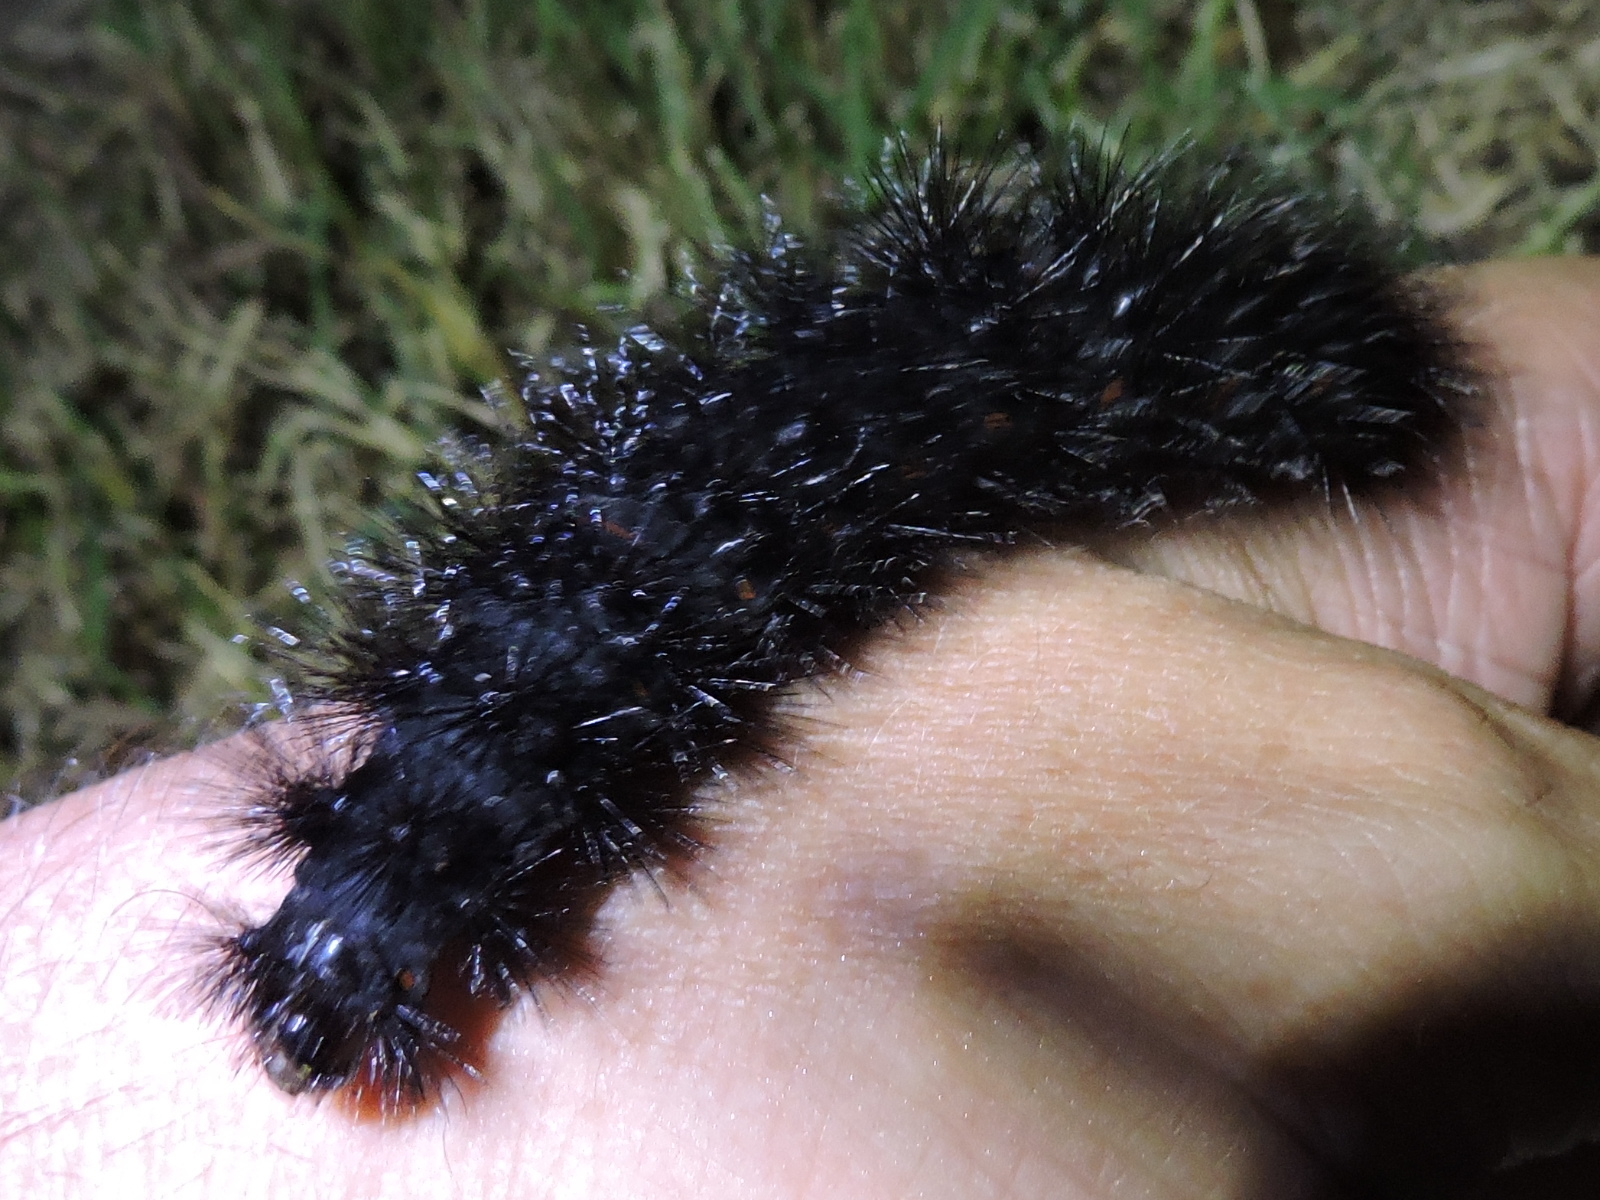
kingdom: Animalia
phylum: Arthropoda
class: Insecta
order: Lepidoptera
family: Erebidae
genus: Hypercompe
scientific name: Hypercompe scribonia
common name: Giant leopard moth
